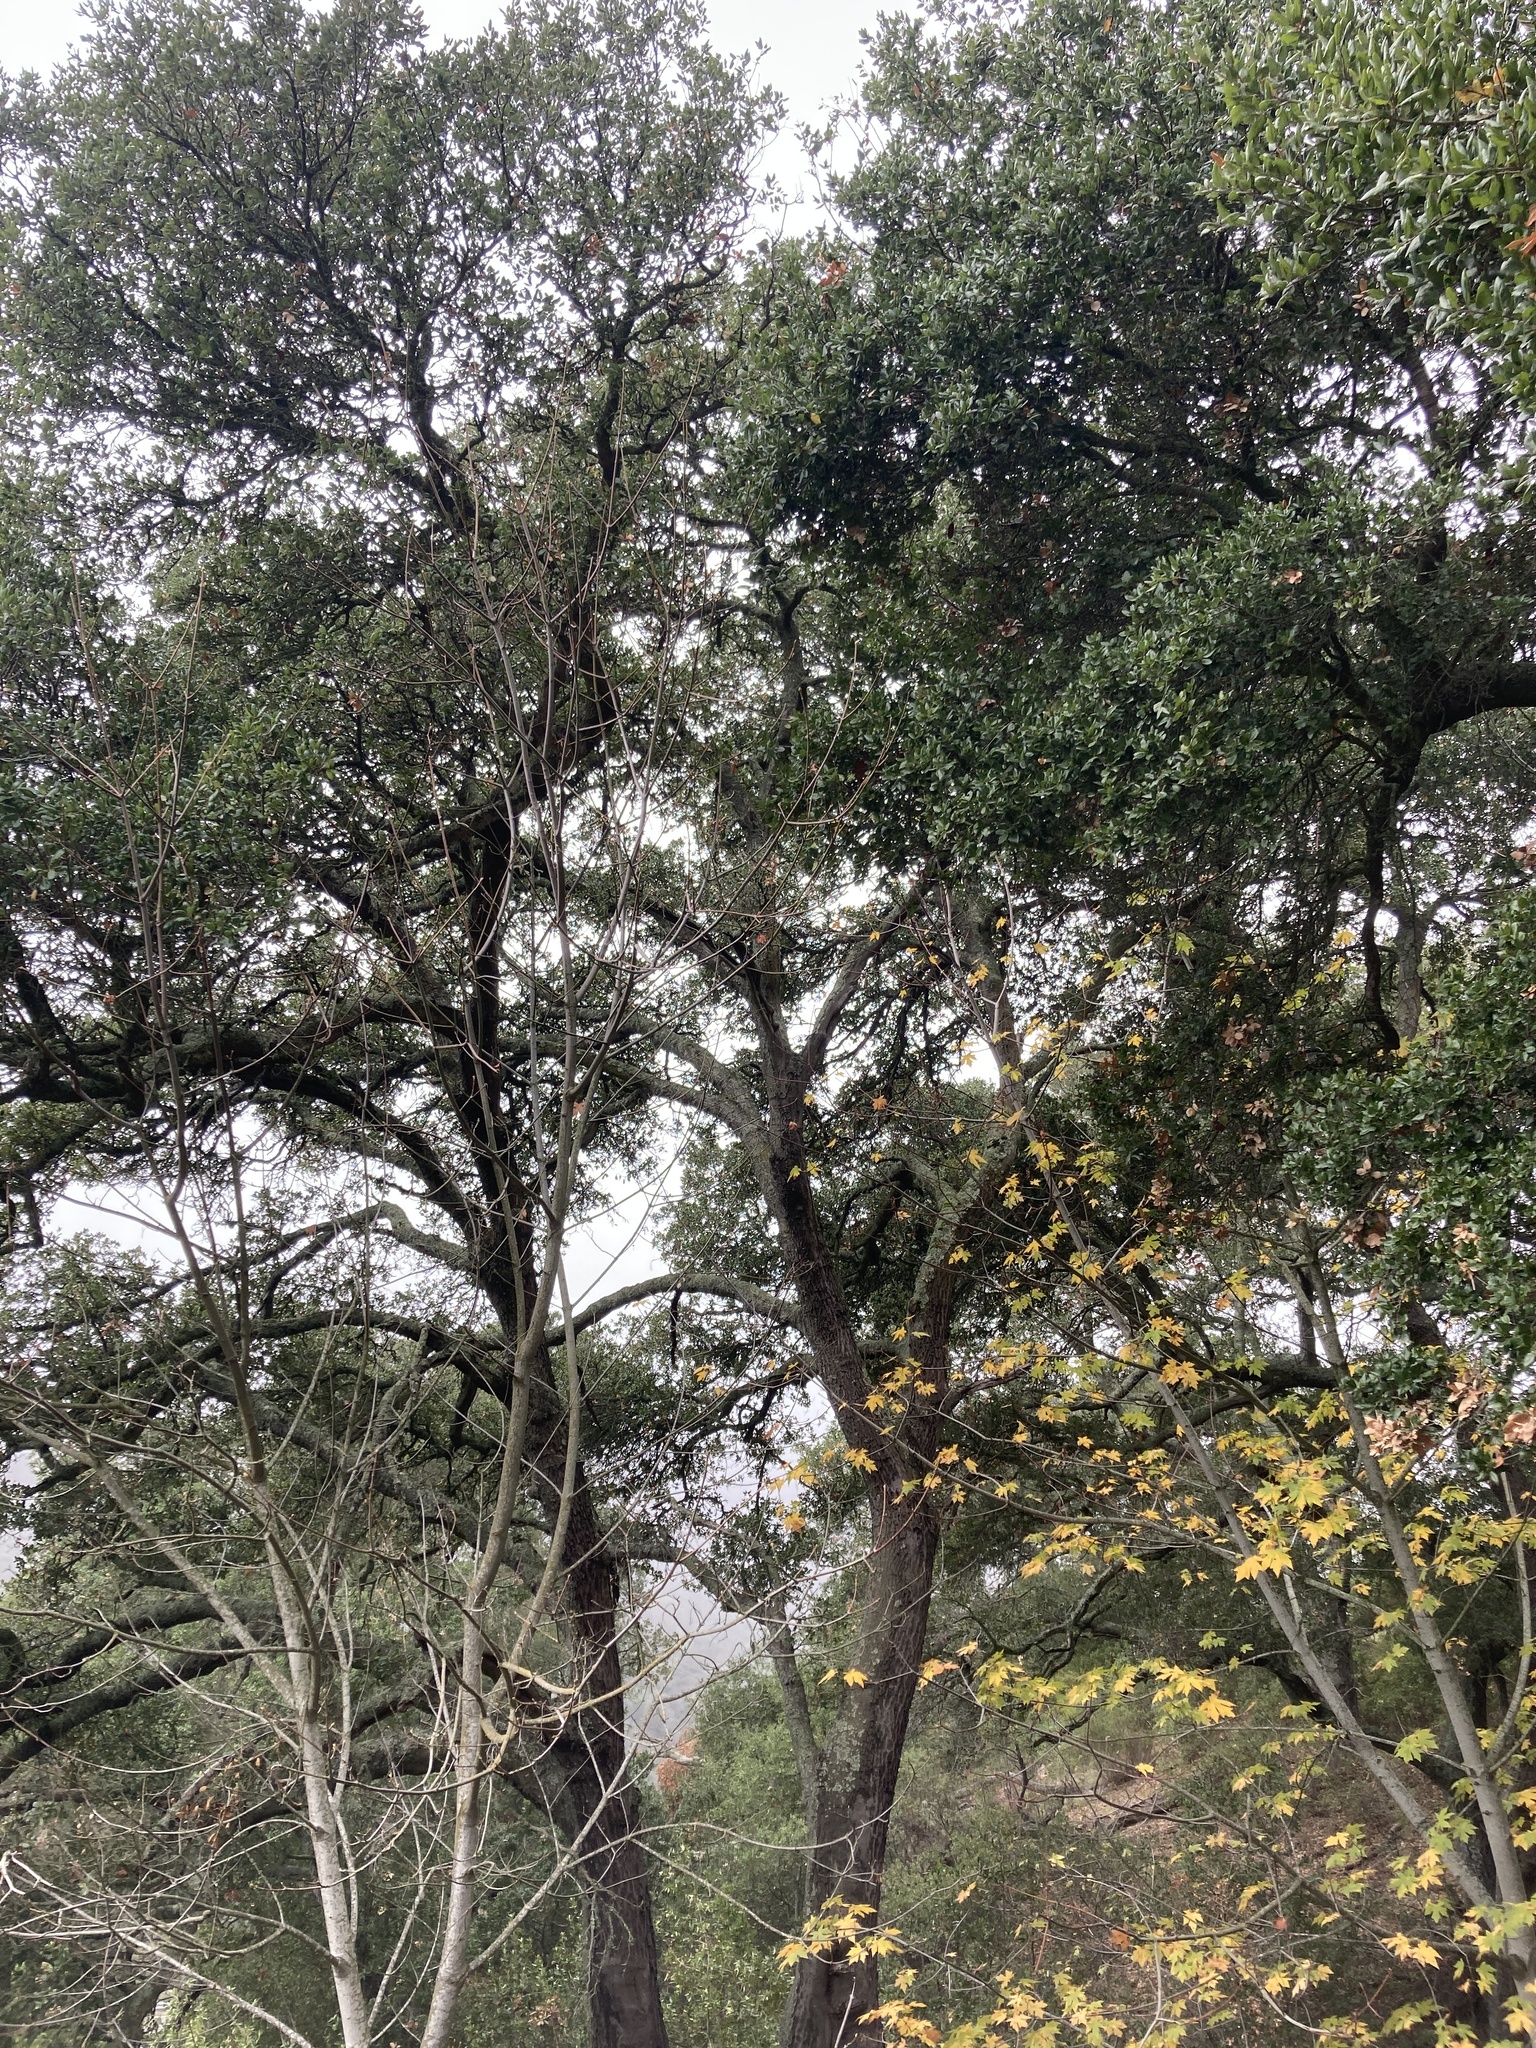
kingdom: Plantae
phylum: Tracheophyta
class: Magnoliopsida
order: Fagales
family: Fagaceae
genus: Quercus
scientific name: Quercus agrifolia
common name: California live oak
